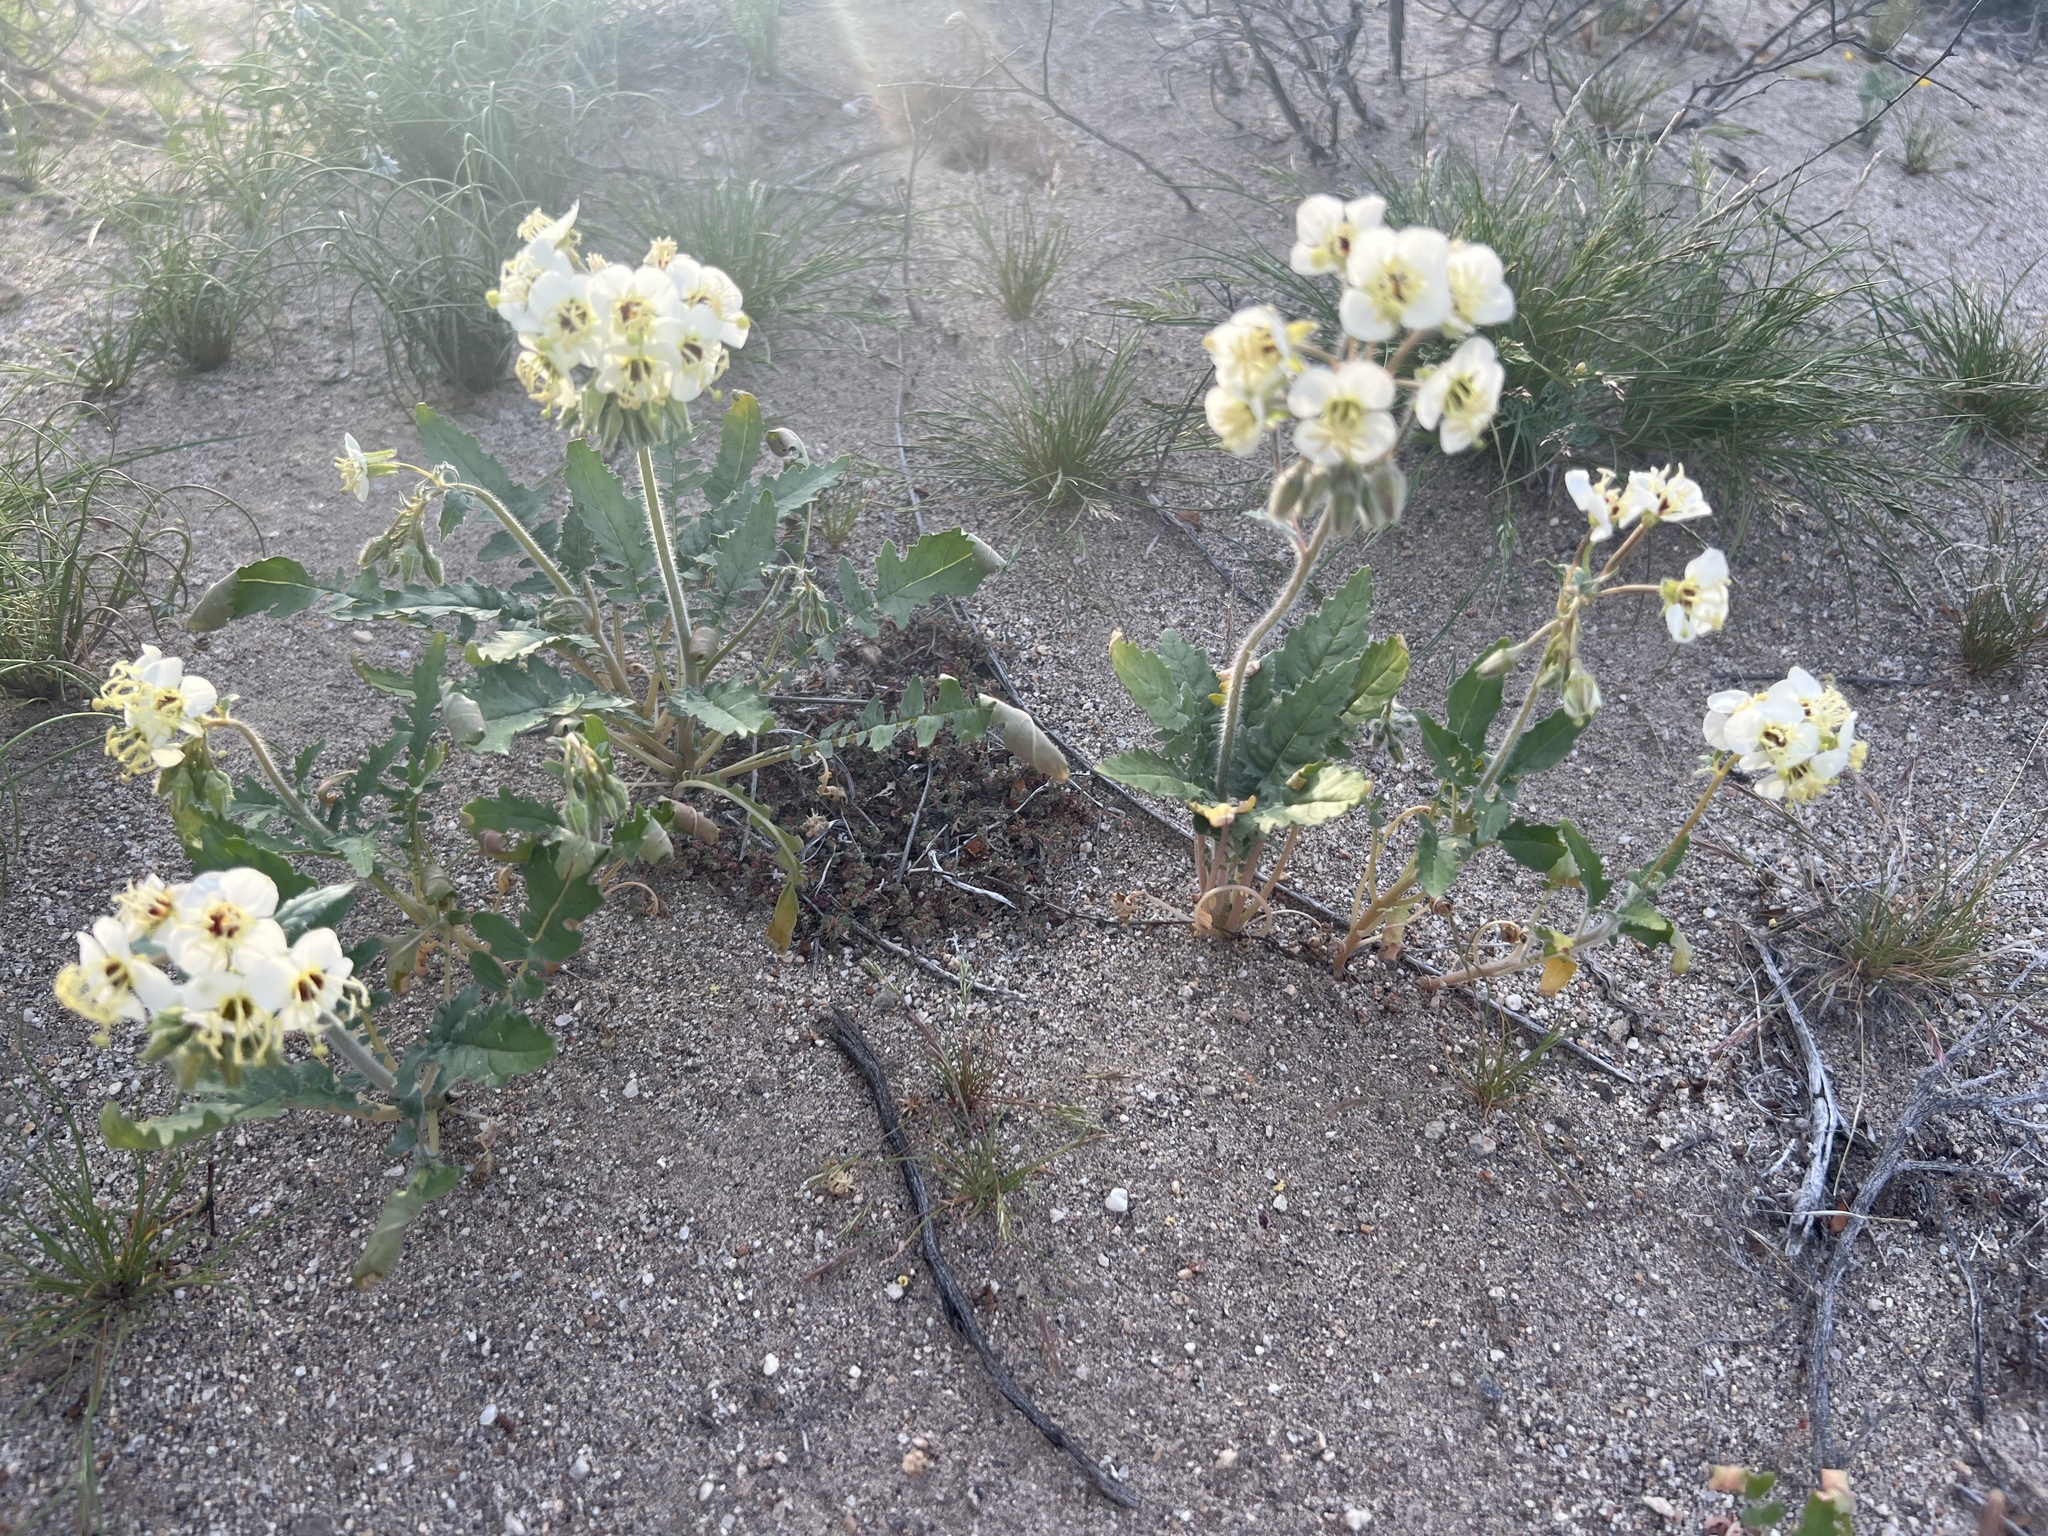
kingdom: Plantae
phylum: Tracheophyta
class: Magnoliopsida
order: Myrtales
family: Onagraceae
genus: Chylismia
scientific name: Chylismia claviformis
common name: Browneyes
